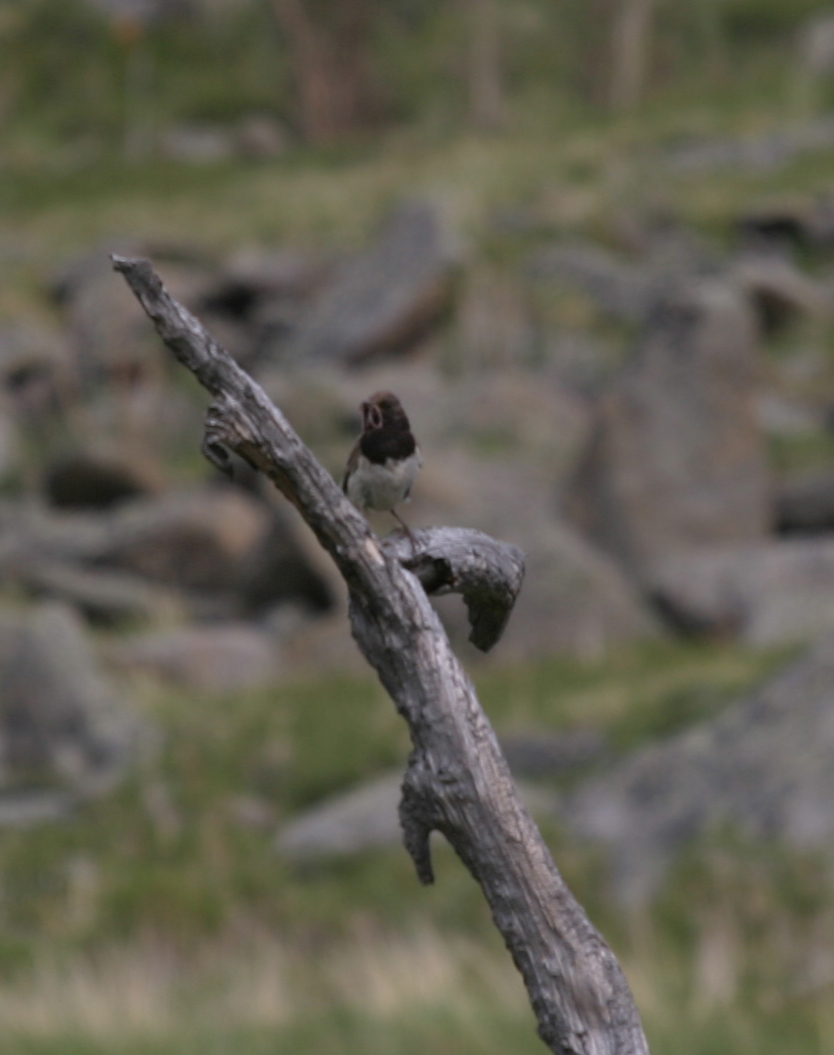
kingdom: Animalia
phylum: Chordata
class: Aves
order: Passeriformes
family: Turdidae
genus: Turdus
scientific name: Turdus atrogularis
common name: Black-throated thrush
